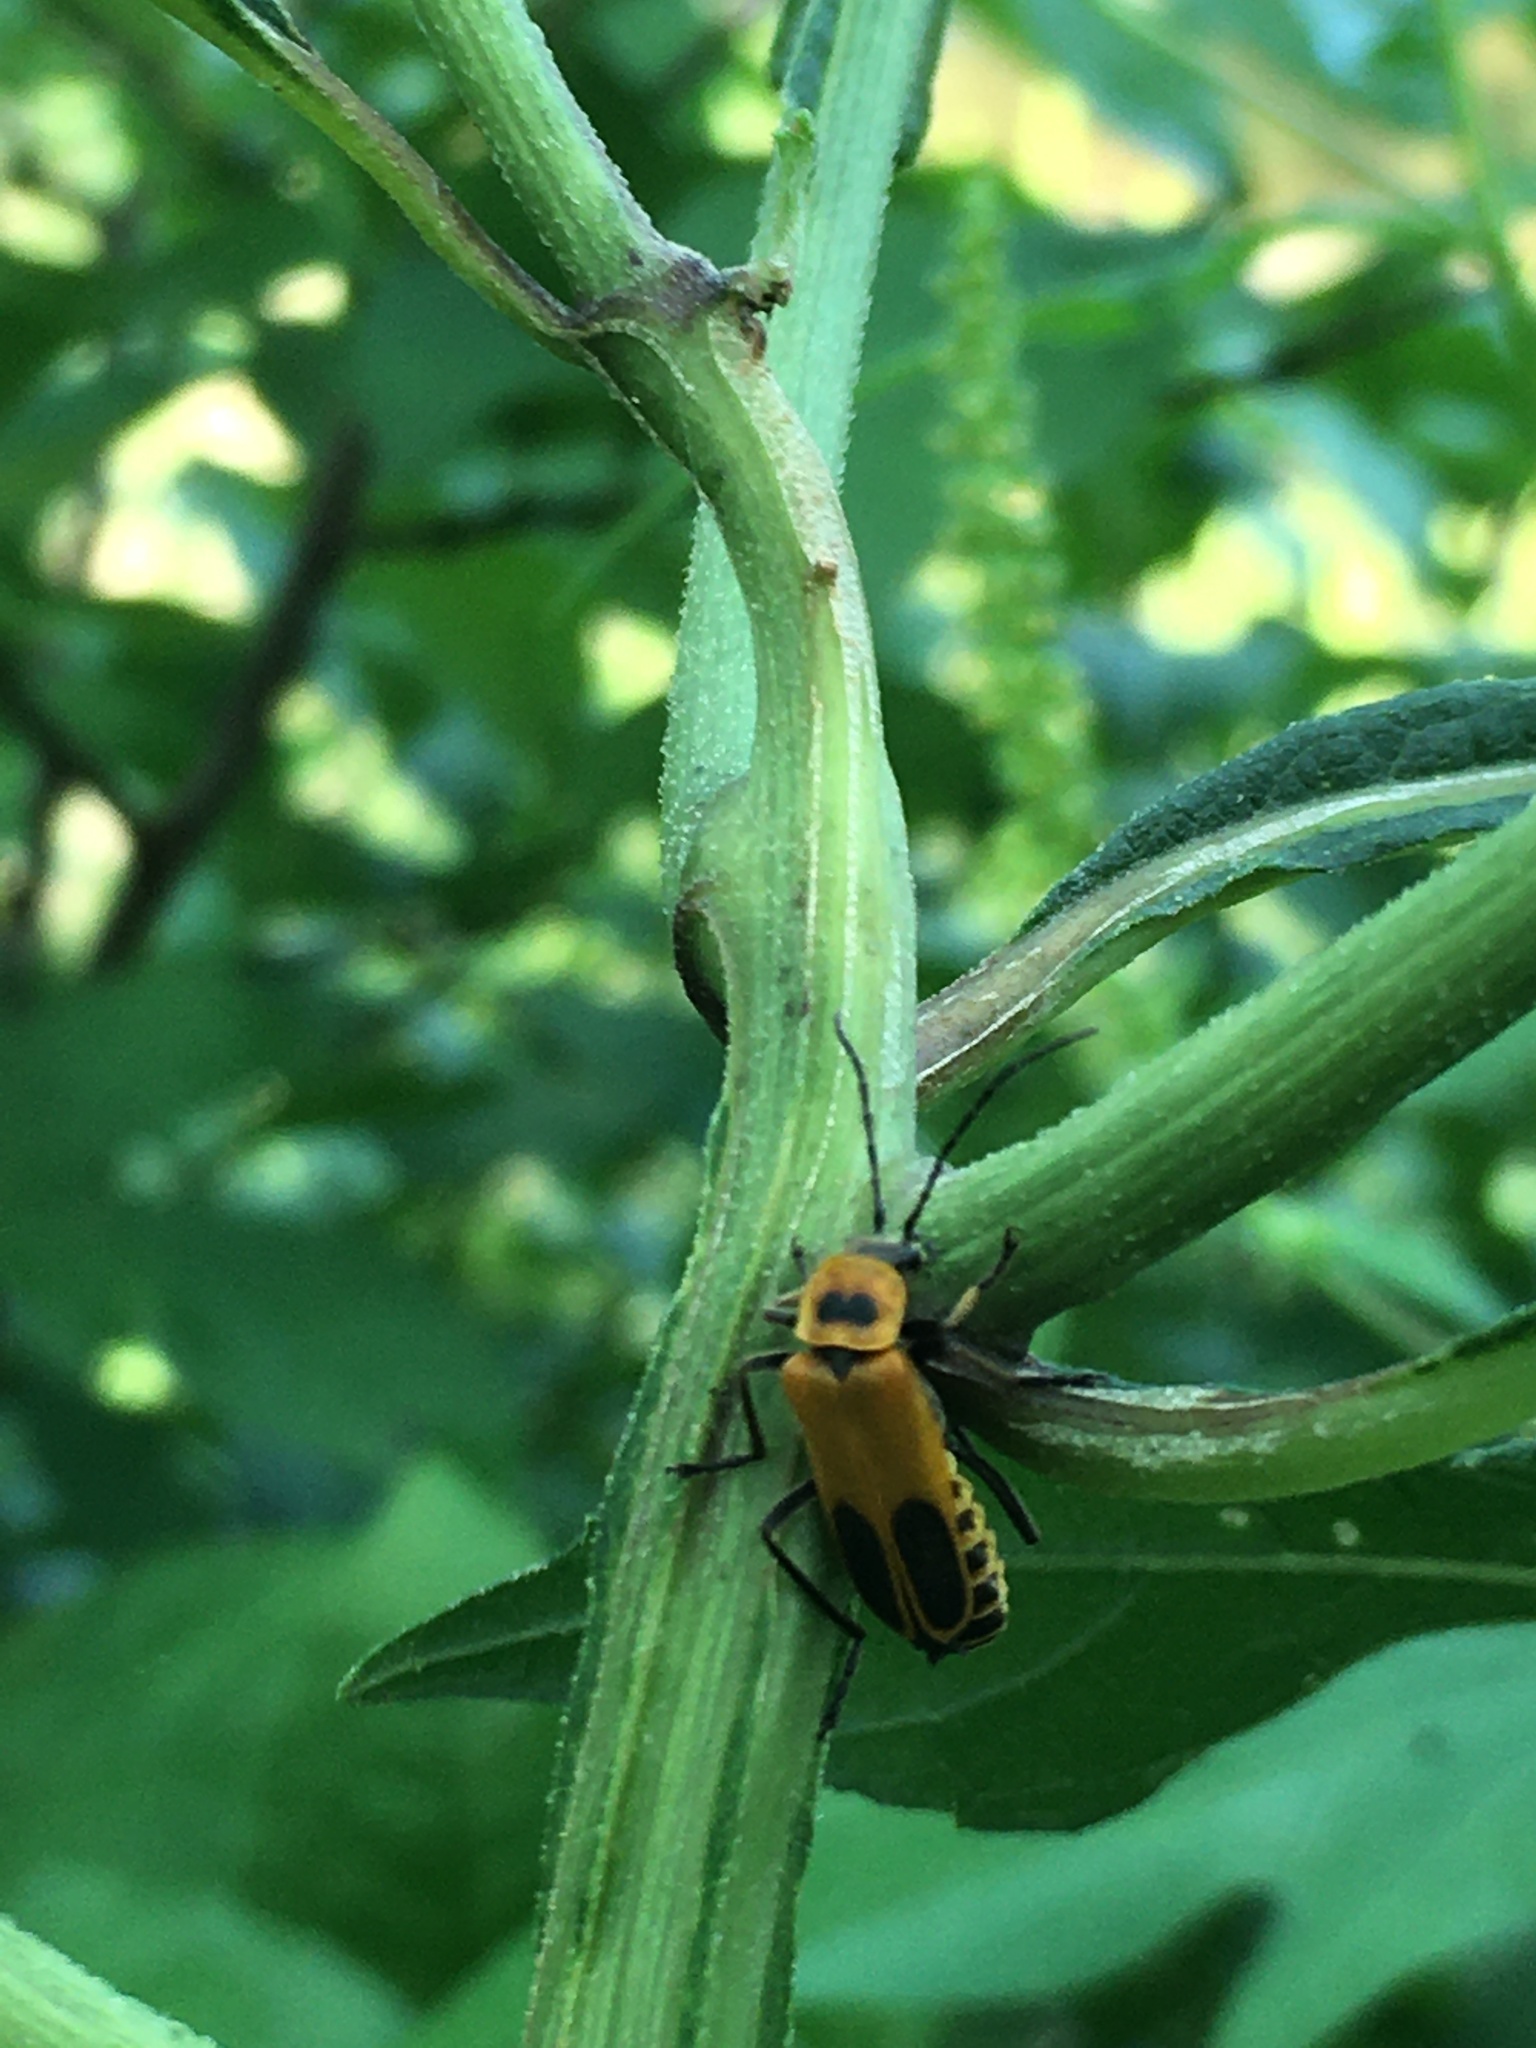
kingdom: Animalia
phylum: Arthropoda
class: Insecta
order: Coleoptera
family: Cantharidae
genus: Chauliognathus
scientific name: Chauliognathus pensylvanicus
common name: Goldenrod soldier beetle
